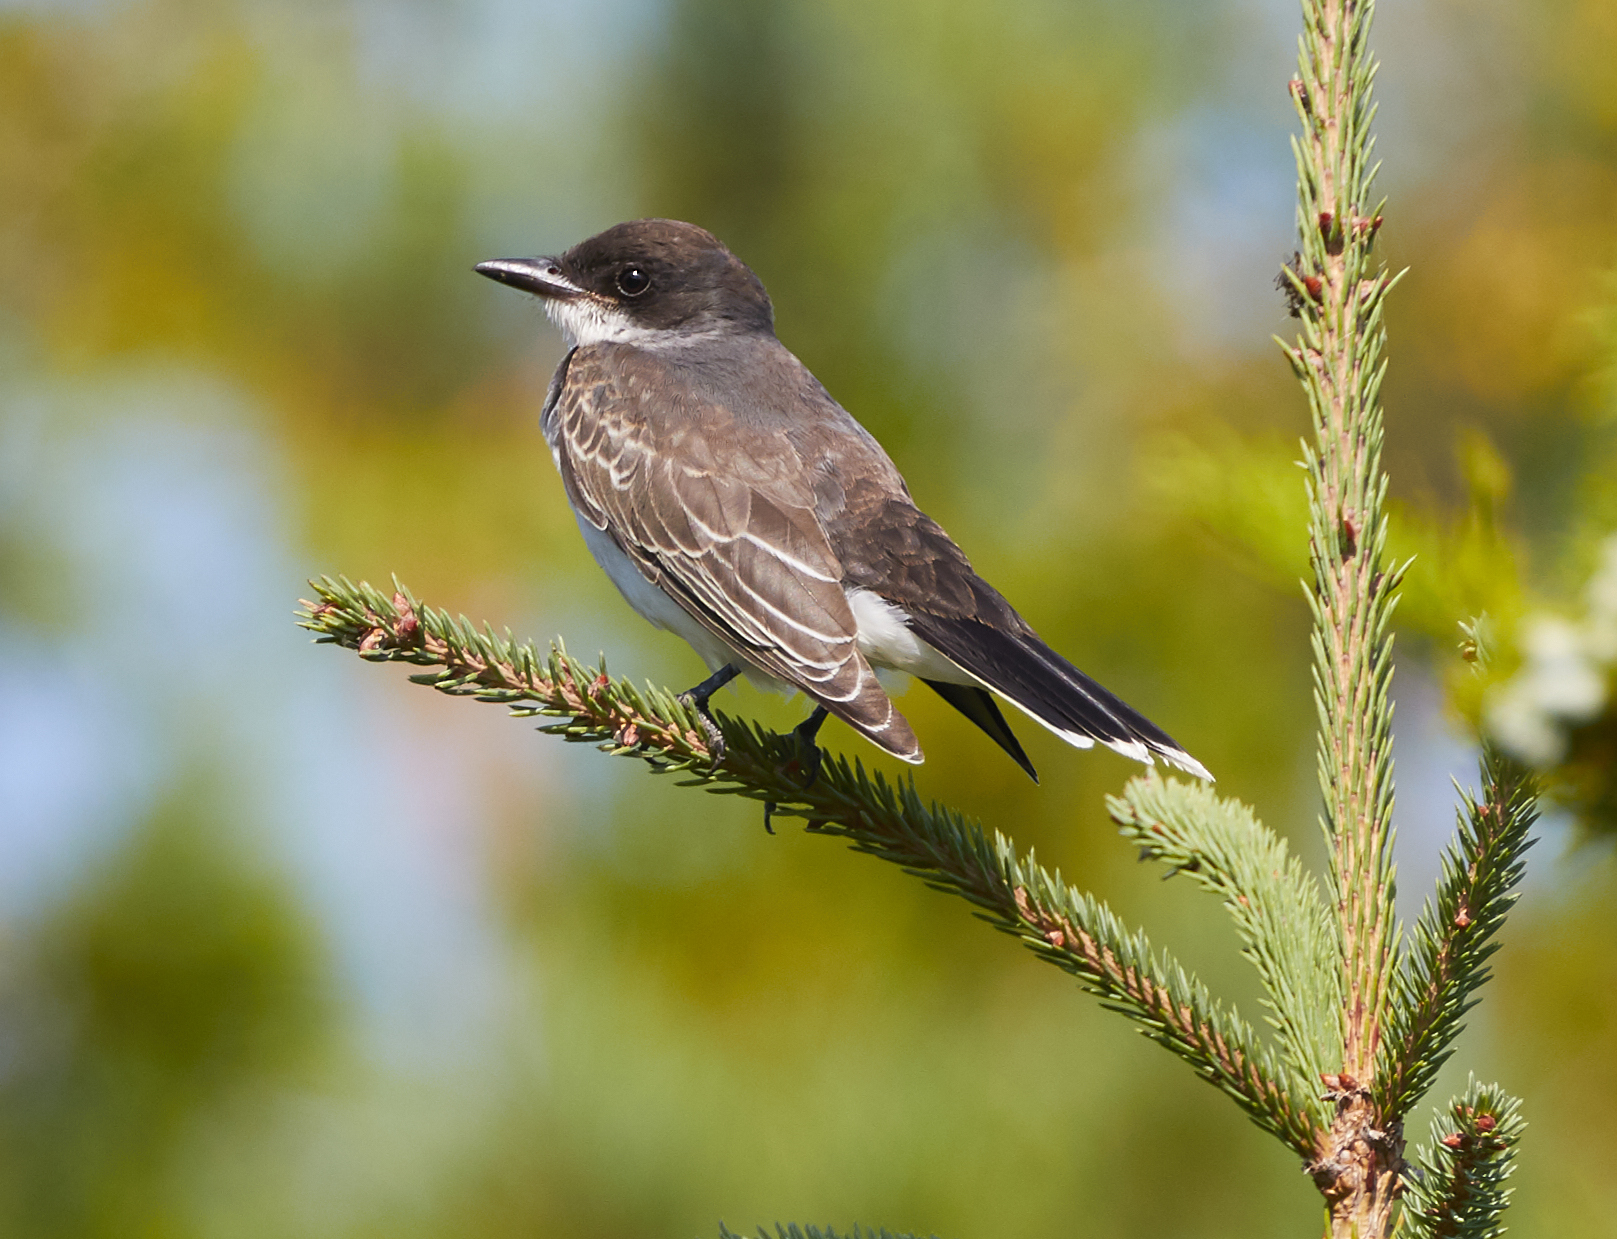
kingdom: Animalia
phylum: Chordata
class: Aves
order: Passeriformes
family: Tyrannidae
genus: Tyrannus
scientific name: Tyrannus tyrannus
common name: Eastern kingbird
